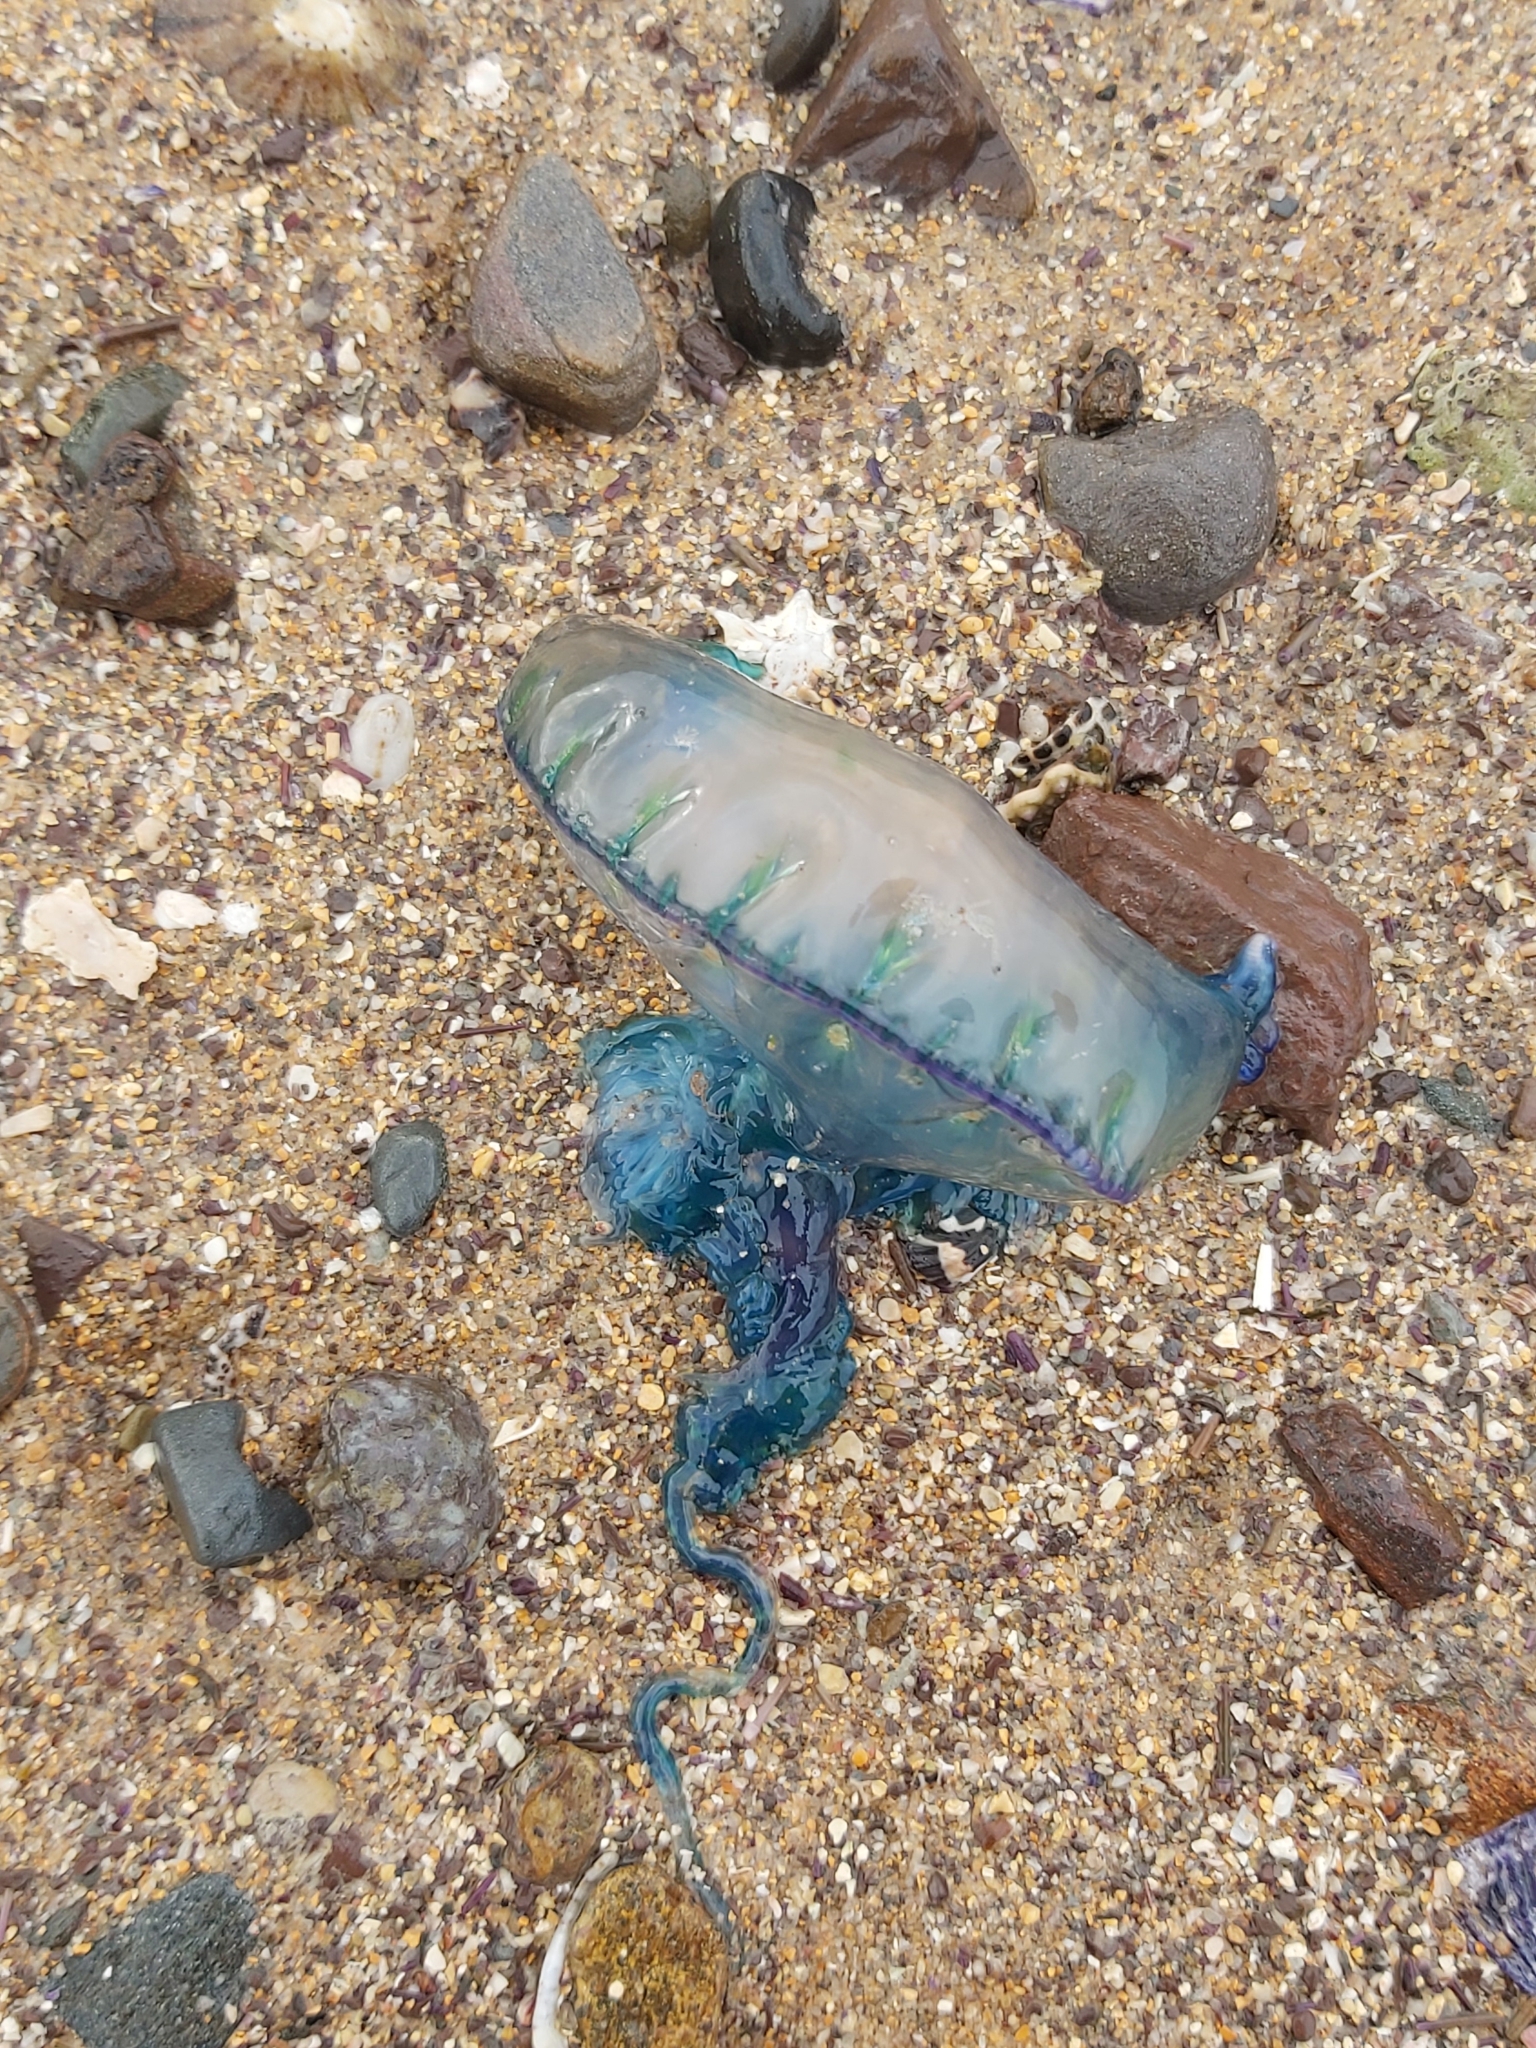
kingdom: Animalia
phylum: Cnidaria
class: Hydrozoa
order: Siphonophorae
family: Physaliidae
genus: Physalia
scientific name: Physalia physalis
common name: Portuguese man-of-war
